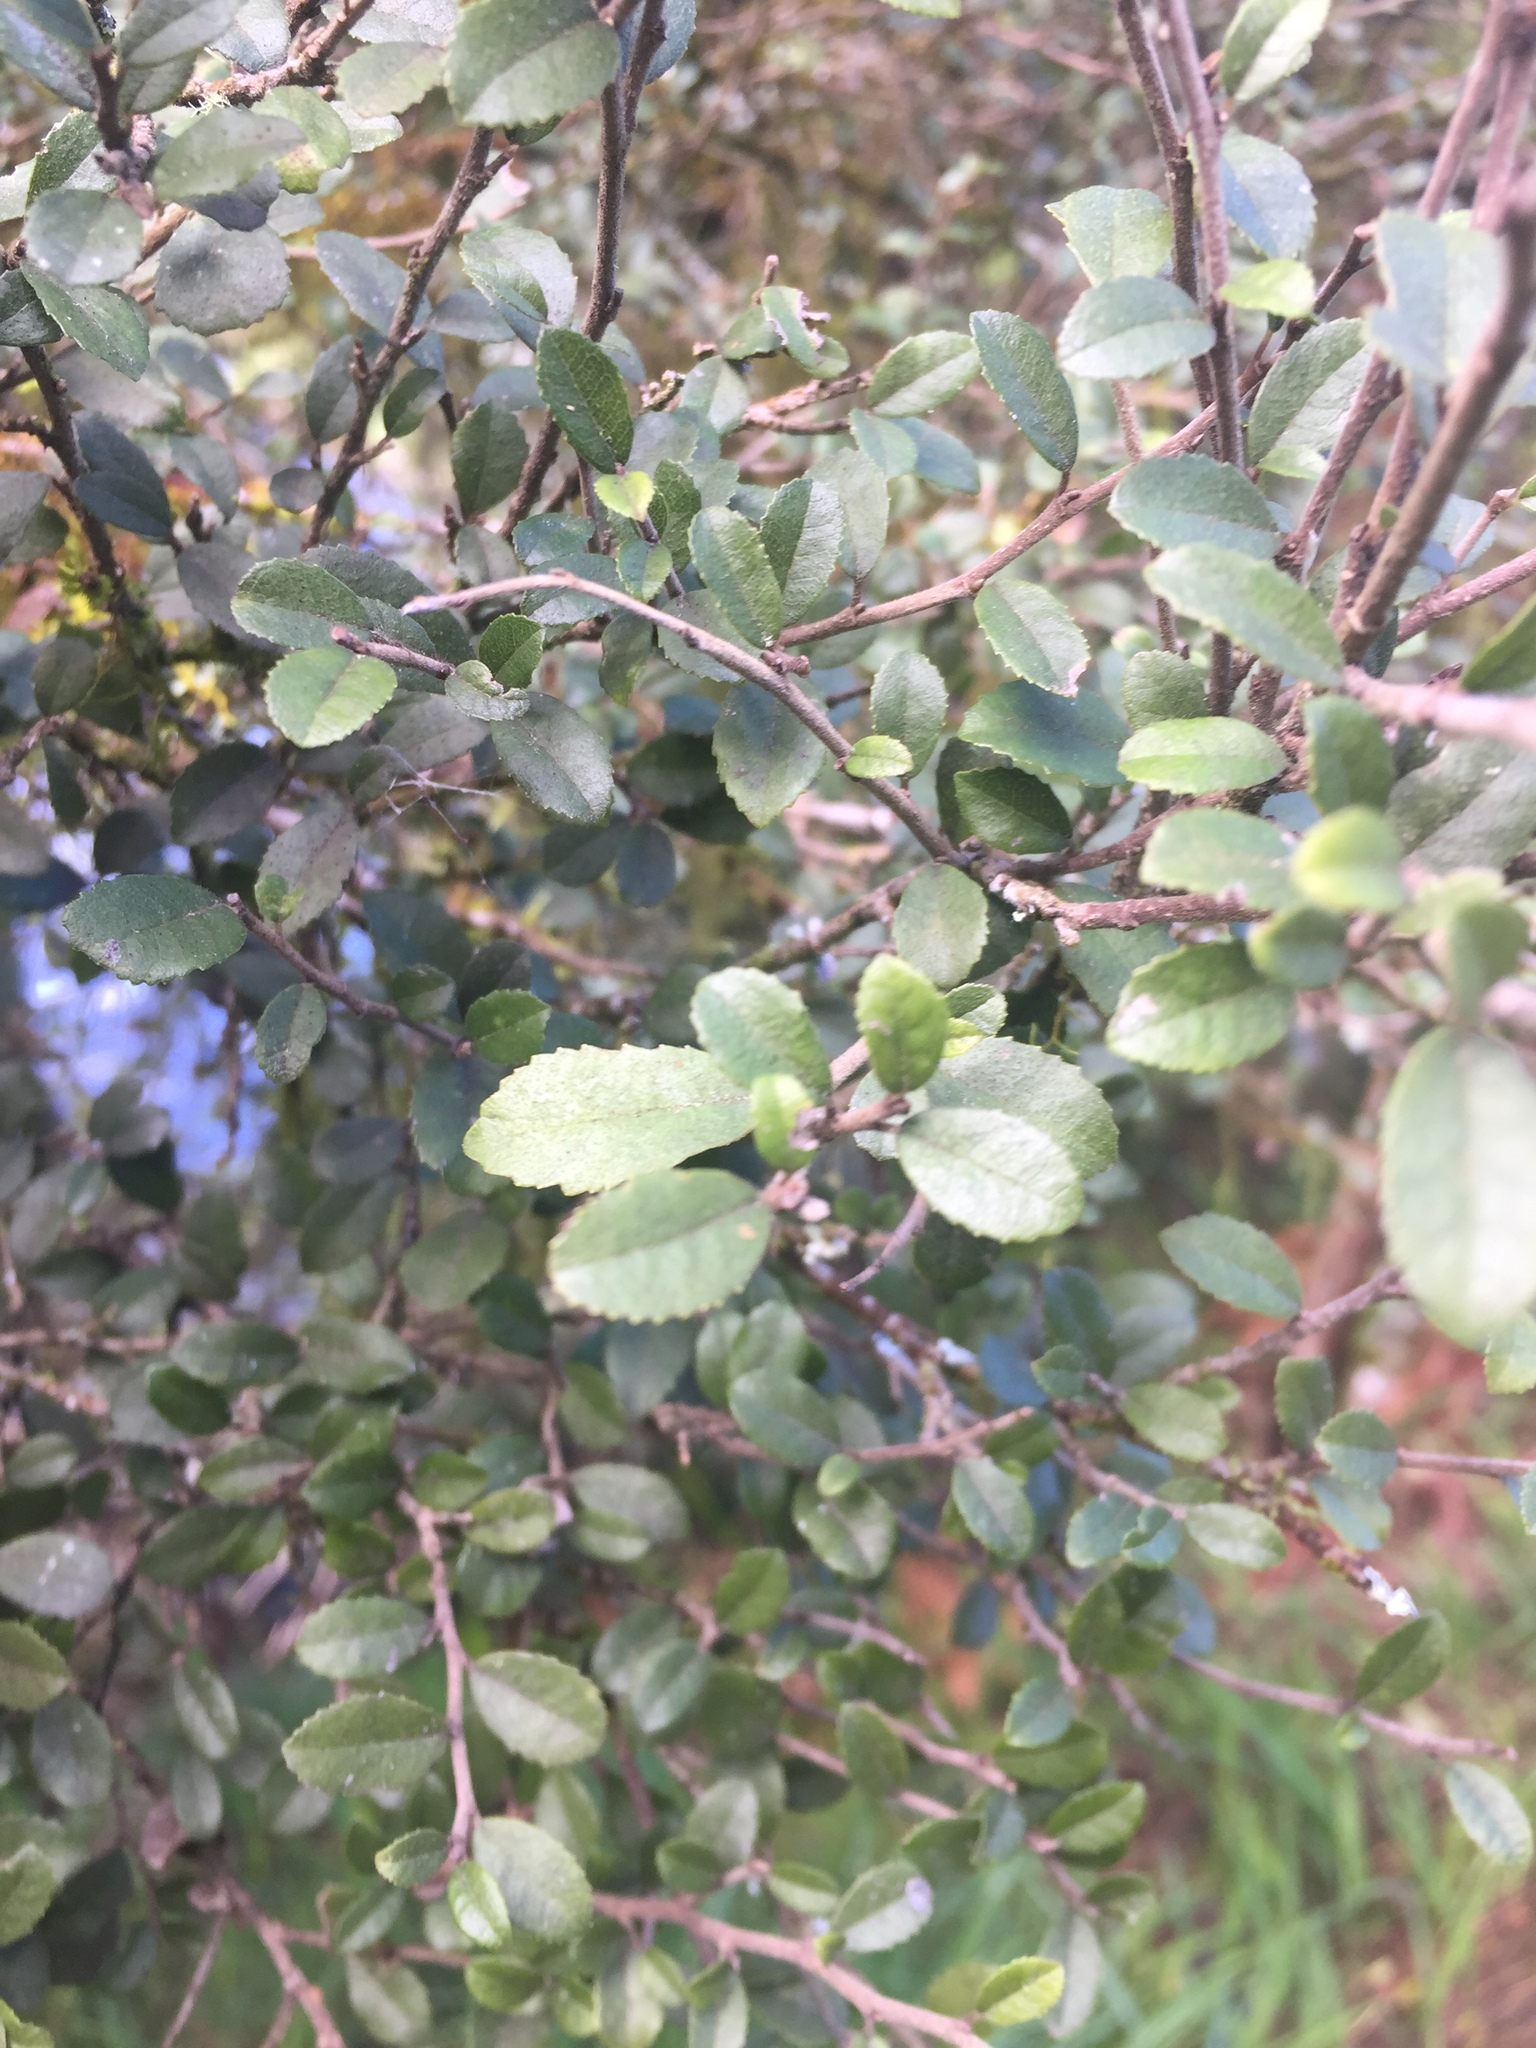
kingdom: Plantae
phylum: Tracheophyta
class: Magnoliopsida
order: Rosales
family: Moraceae
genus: Paratrophis
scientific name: Paratrophis microphylla
